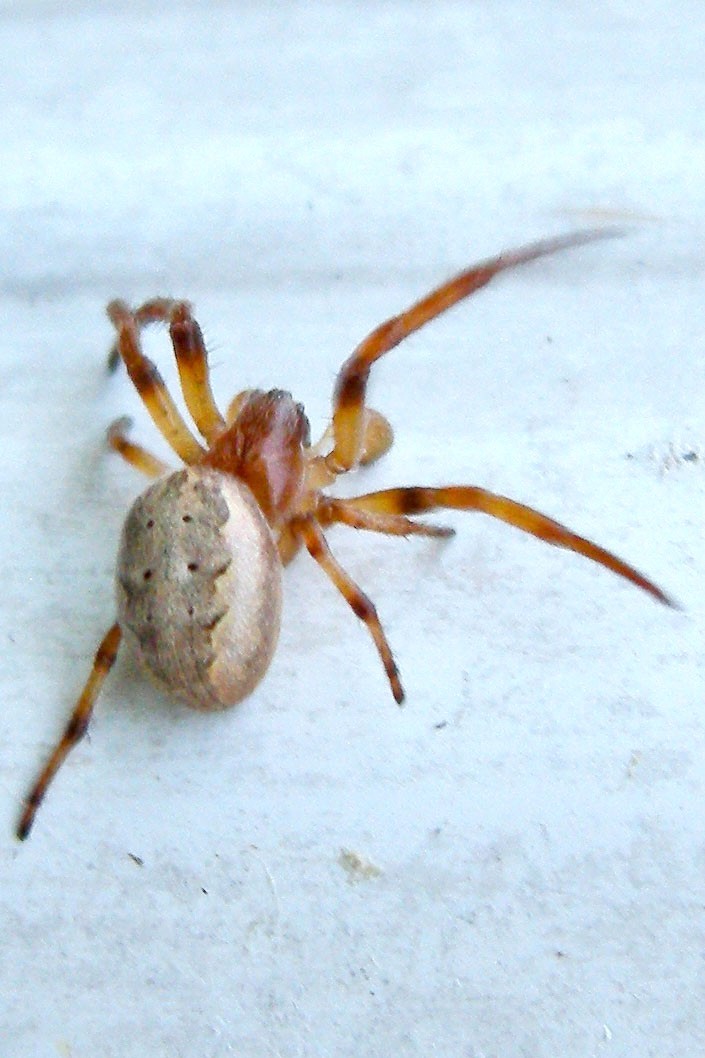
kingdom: Animalia
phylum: Arthropoda
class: Arachnida
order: Araneae
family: Araneidae
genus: Larinioides
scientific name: Larinioides cornutus
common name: Furrow orbweaver
